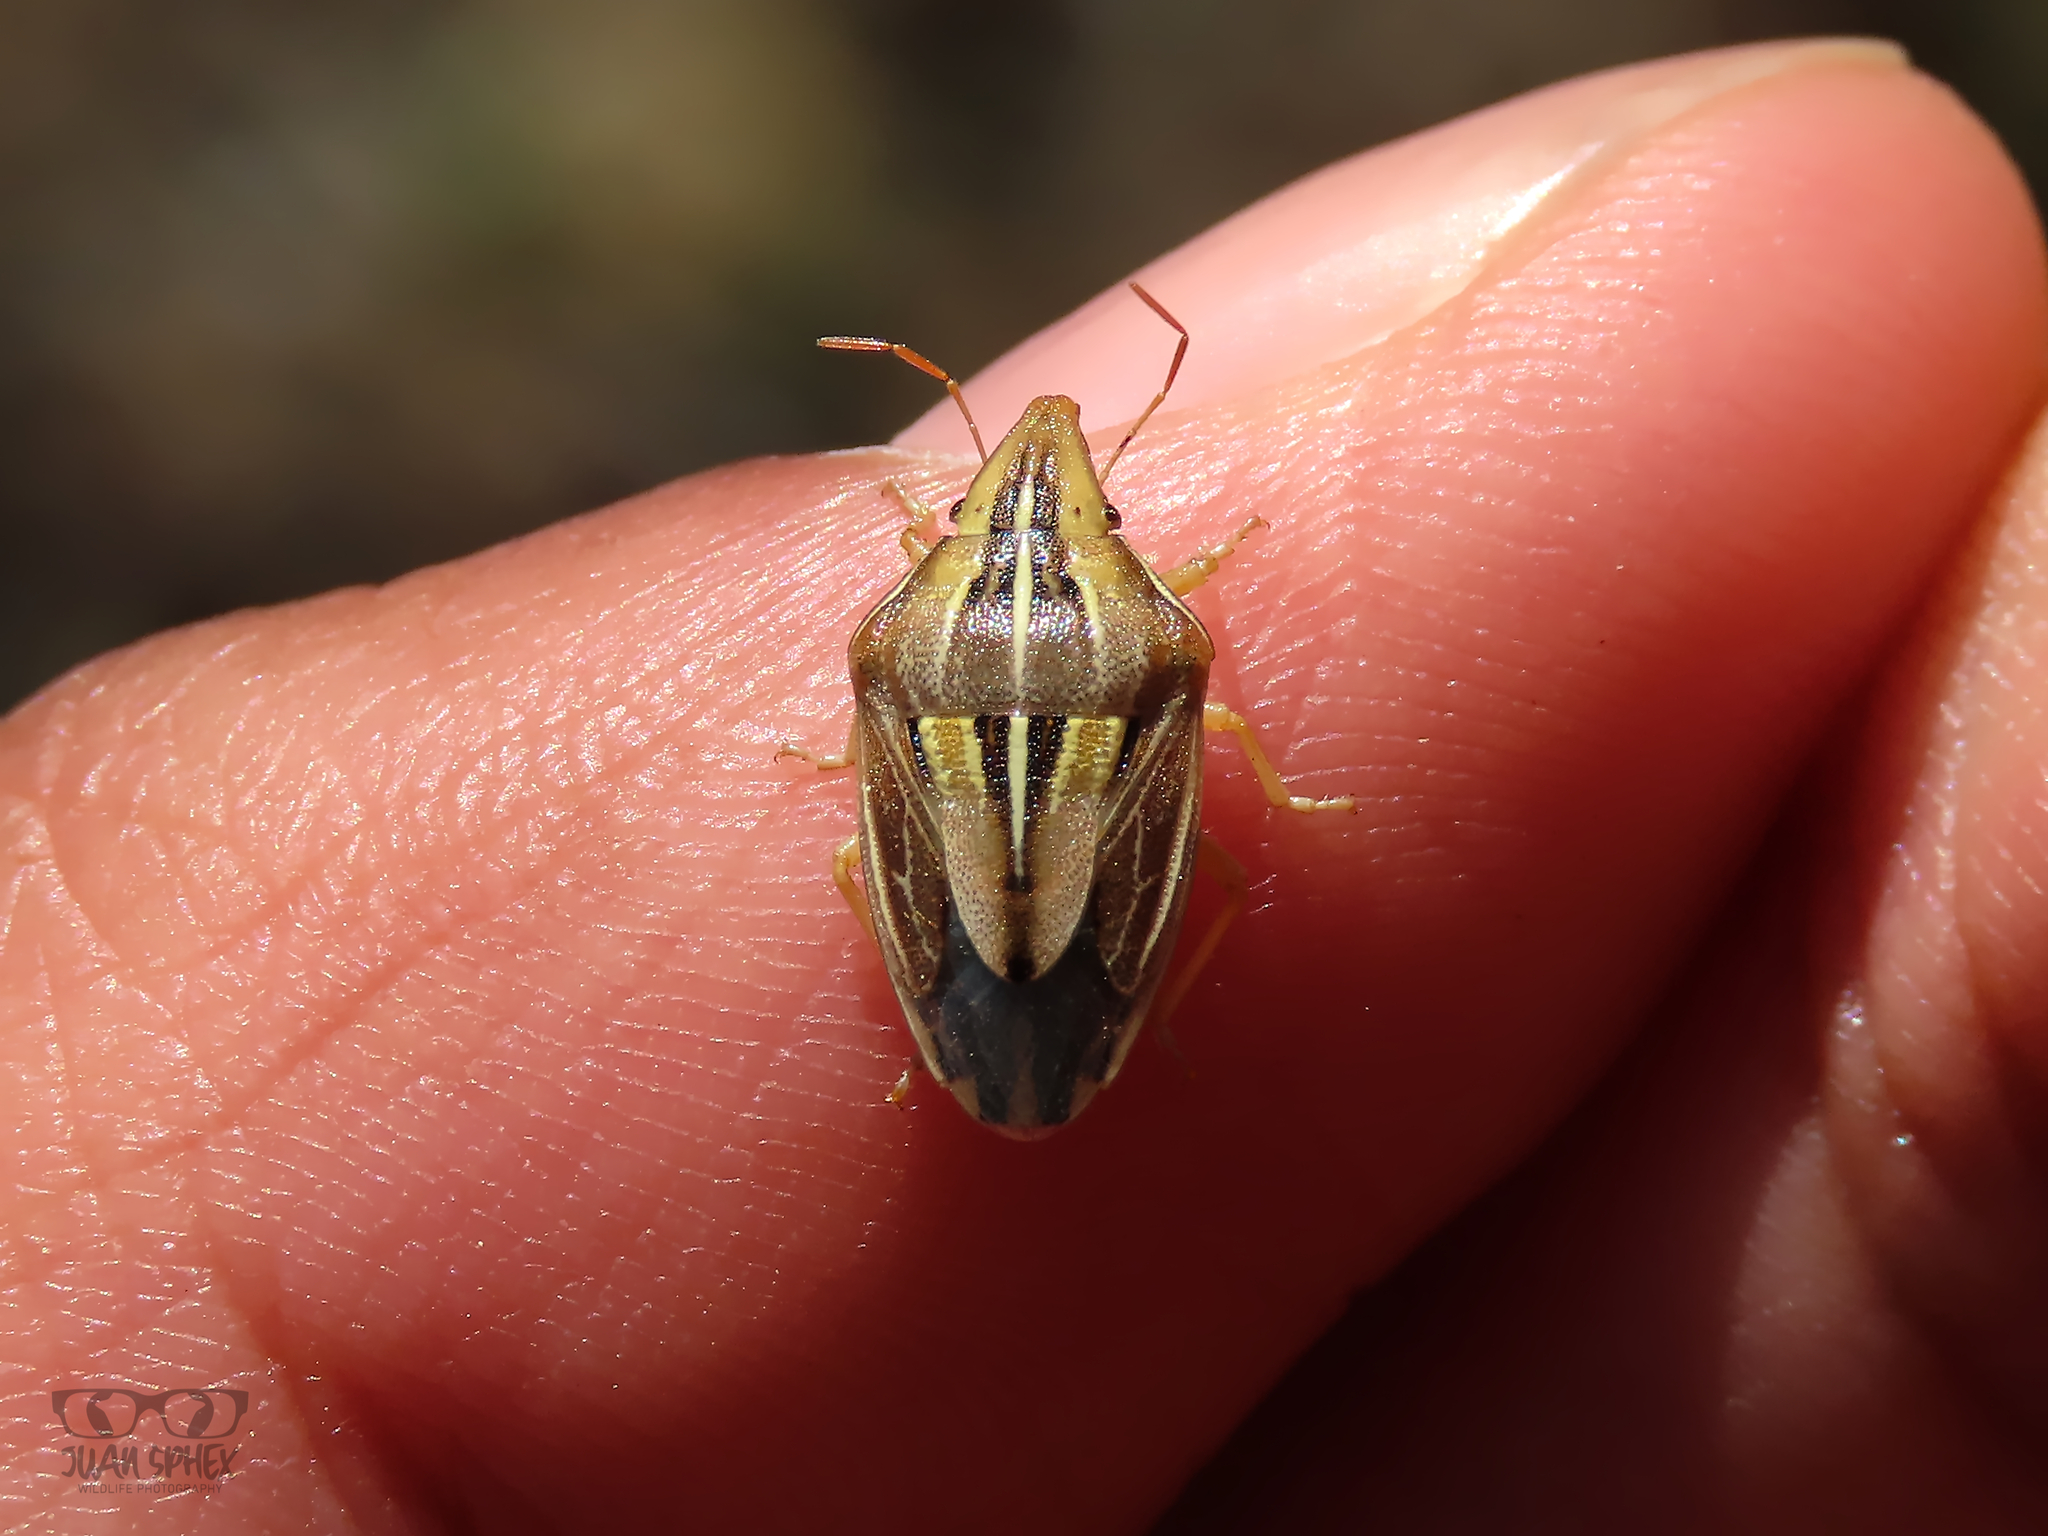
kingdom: Animalia
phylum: Arthropoda
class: Insecta
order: Hemiptera
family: Pentatomidae
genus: Aelia
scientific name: Aelia rostrata
